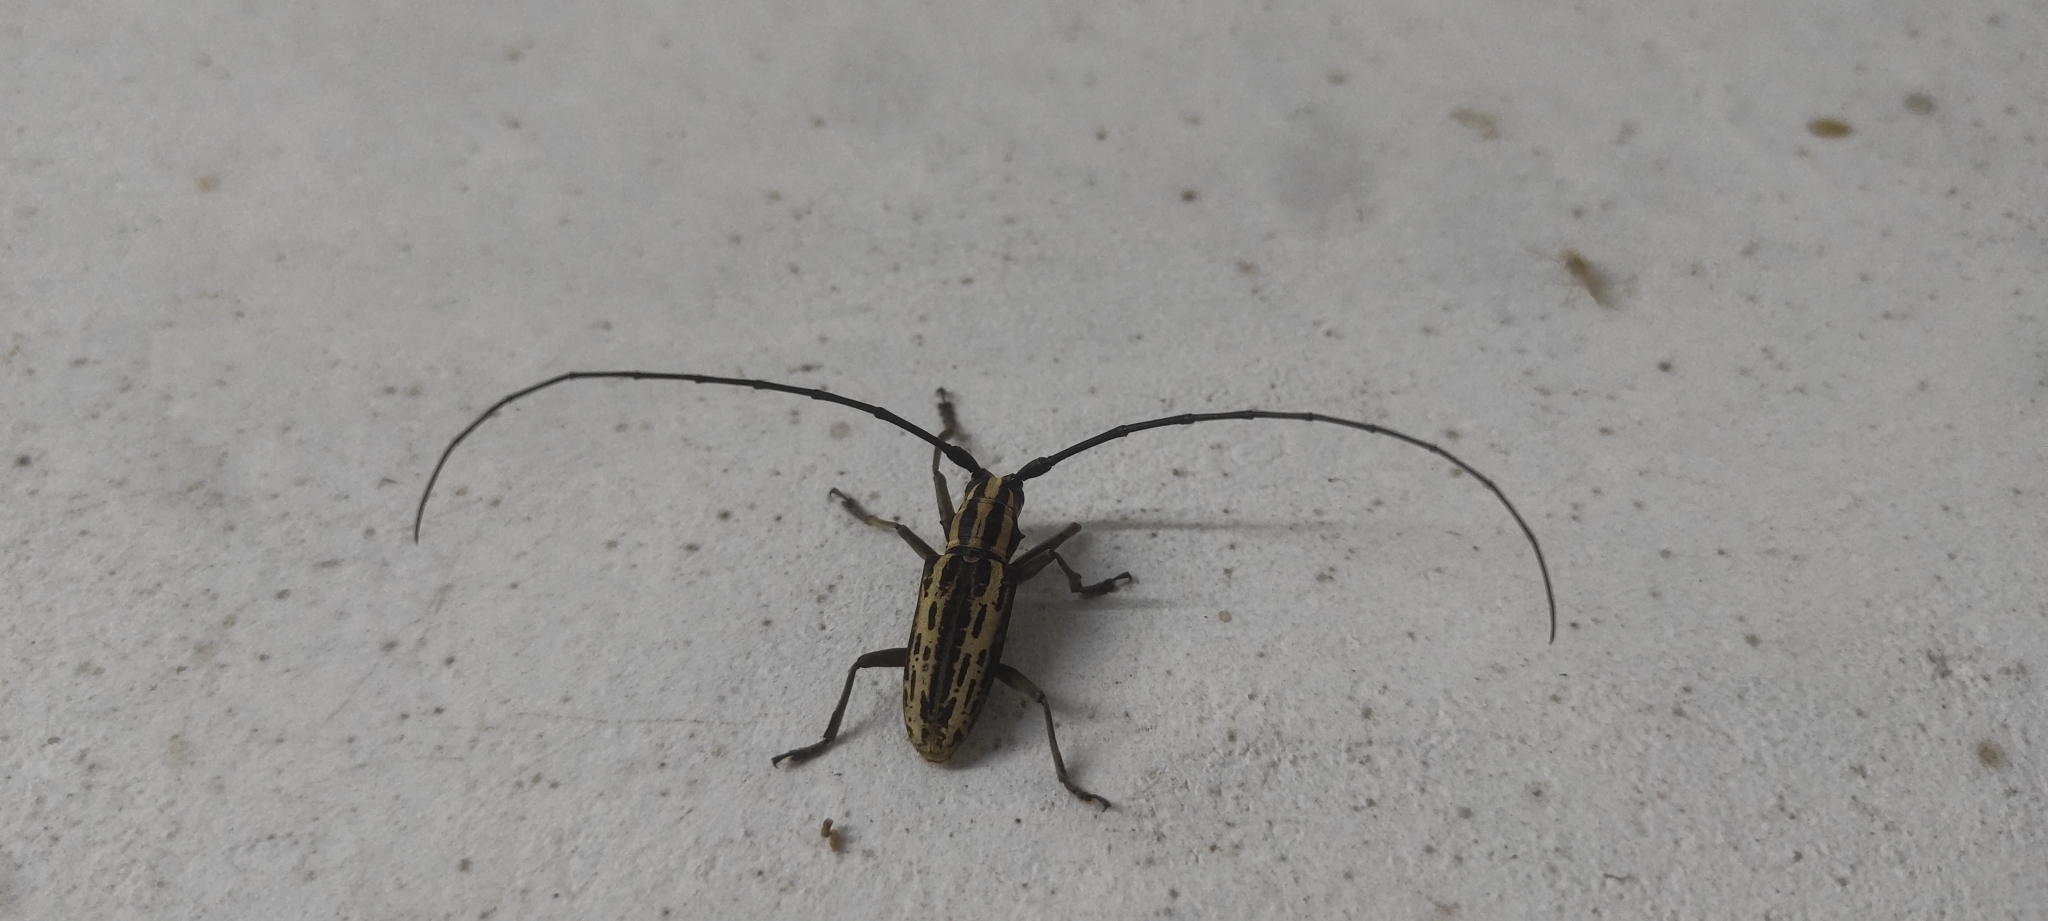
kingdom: Animalia
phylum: Arthropoda
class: Insecta
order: Coleoptera
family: Cerambycidae
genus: Epepeotes
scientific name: Epepeotes uncinatus
